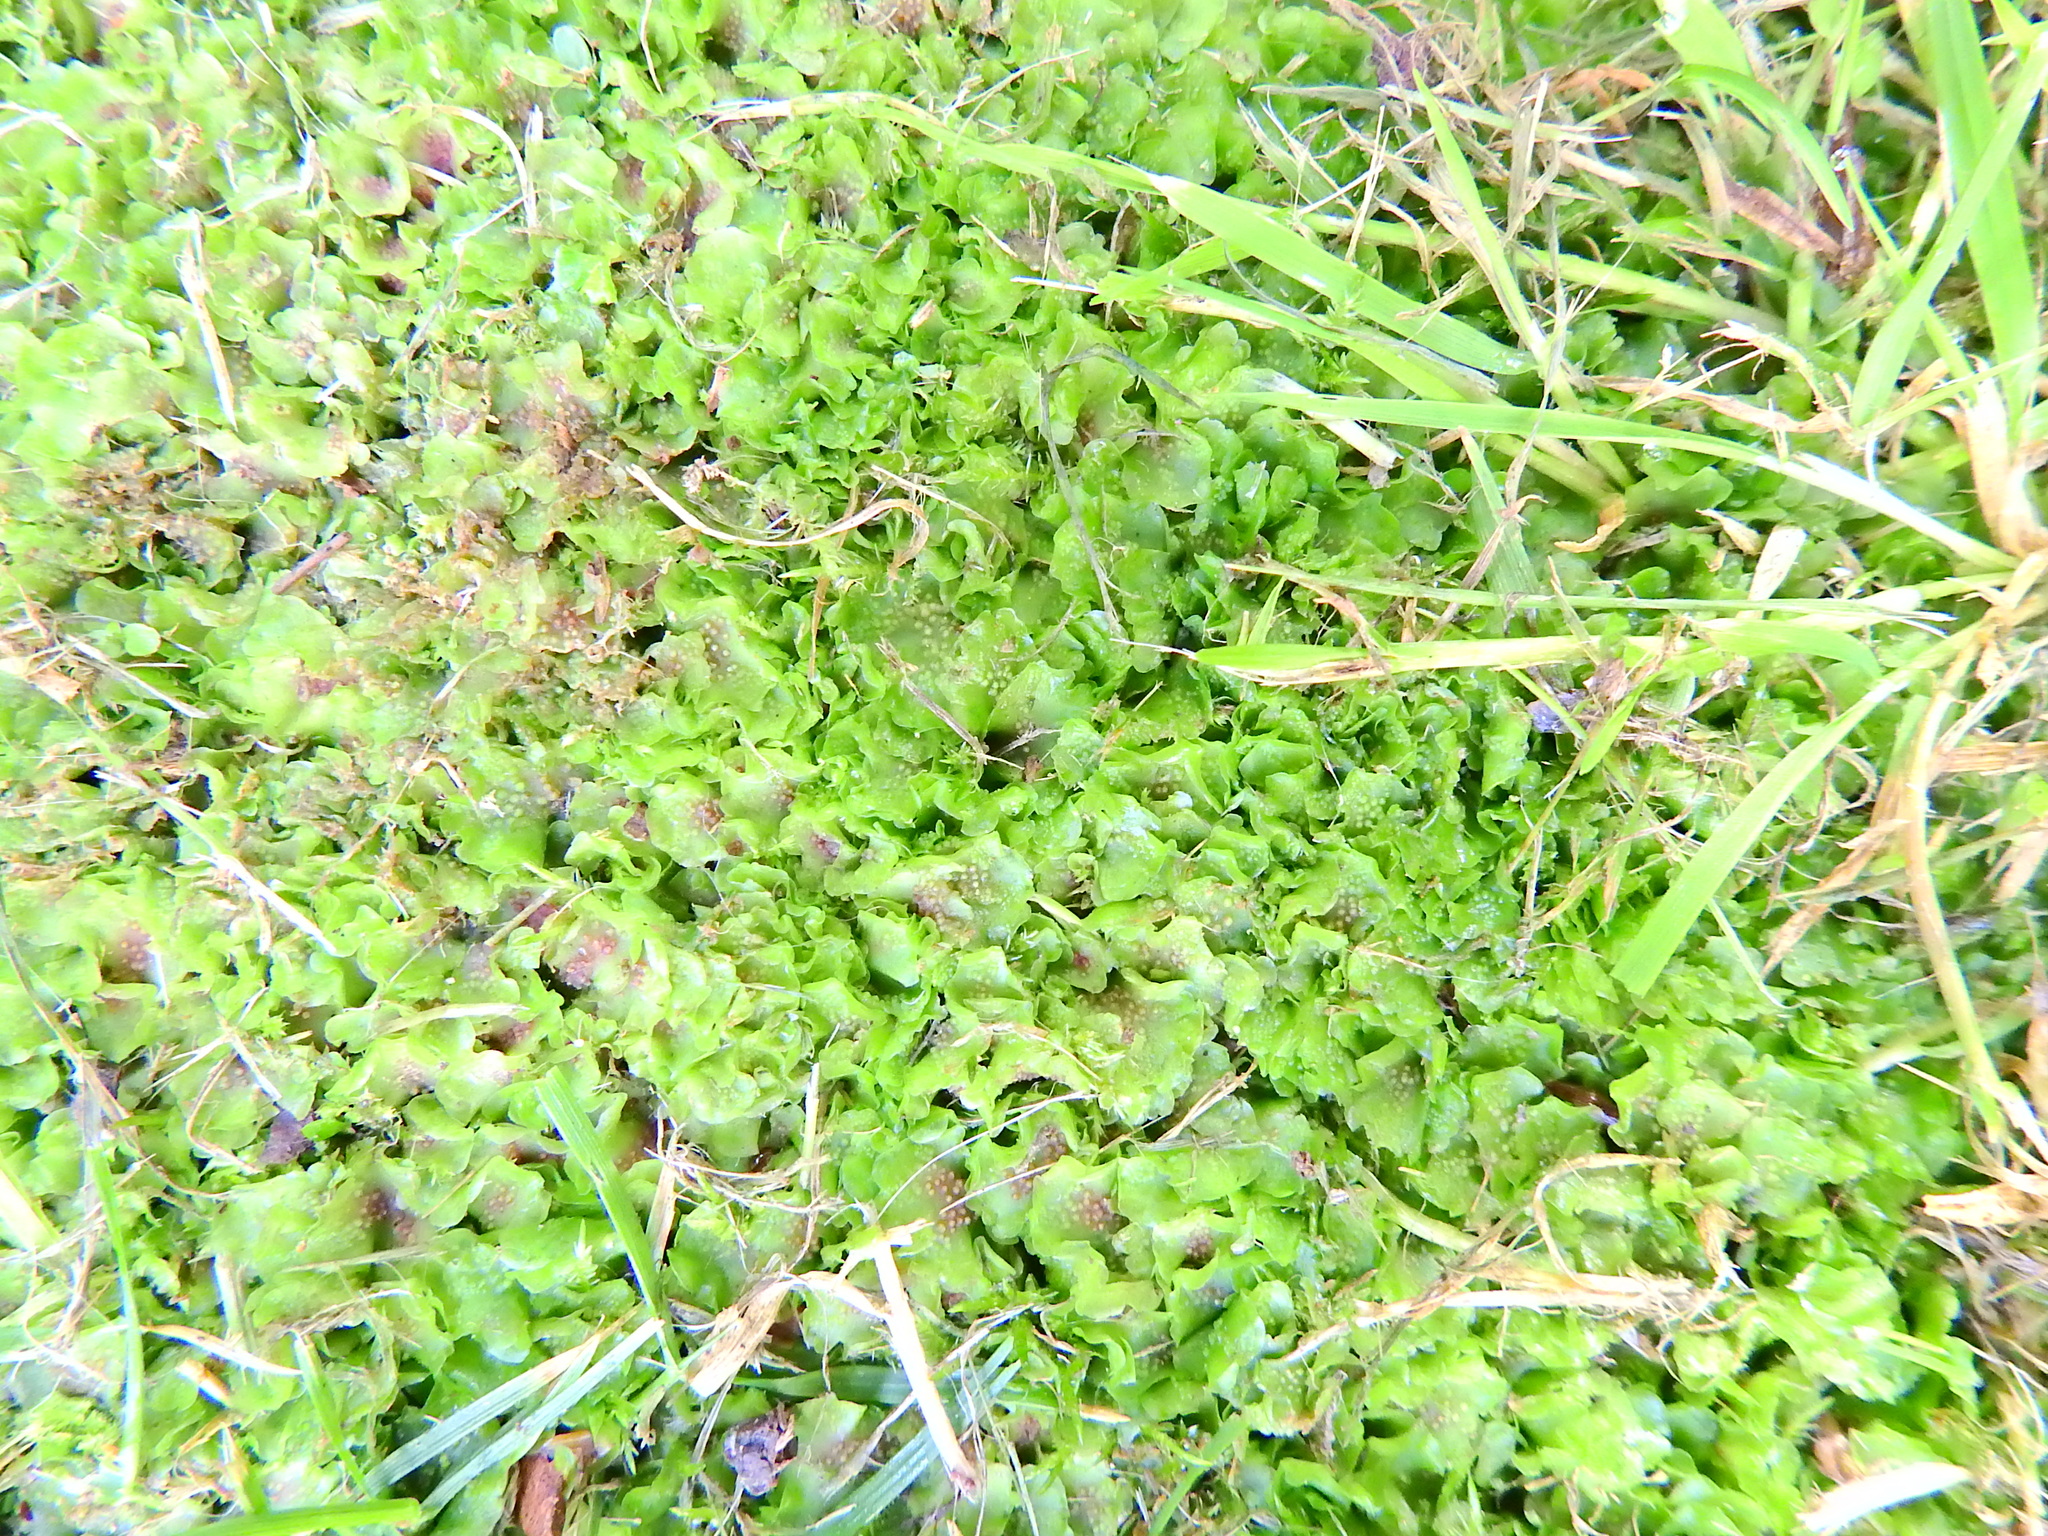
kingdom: Plantae
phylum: Marchantiophyta
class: Jungermanniopsida
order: Pelliales
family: Pelliaceae
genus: Pellia
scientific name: Pellia neesiana
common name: Nees  pellia
